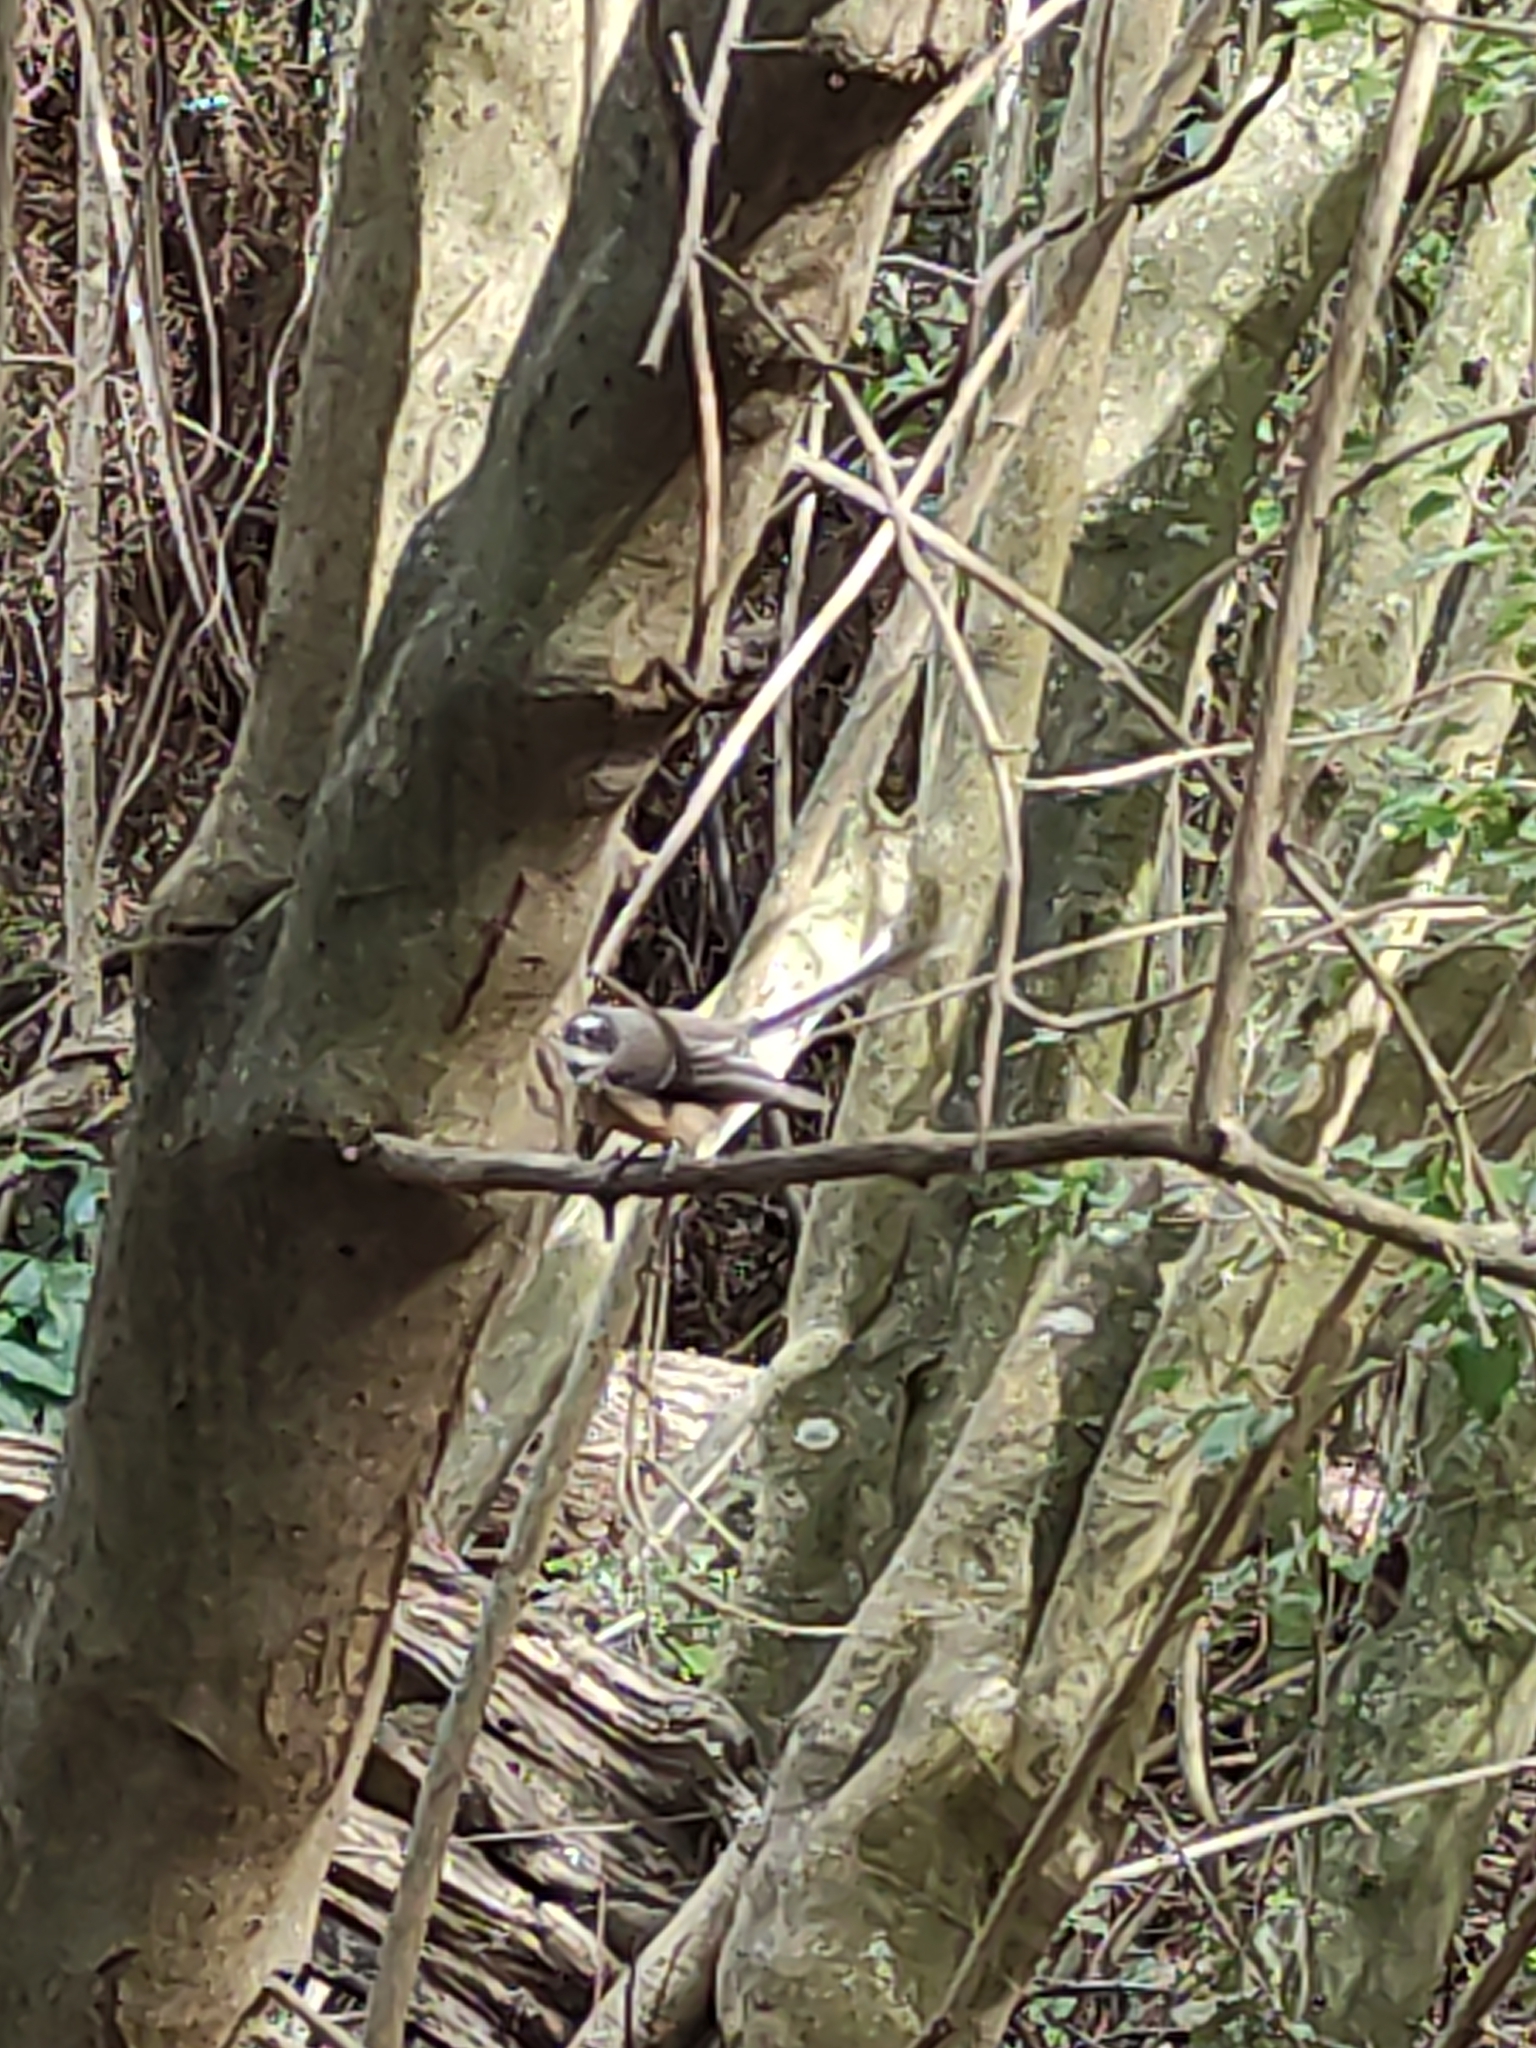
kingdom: Animalia
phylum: Chordata
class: Aves
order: Passeriformes
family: Rhipiduridae
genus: Rhipidura
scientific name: Rhipidura fuliginosa
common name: New zealand fantail
